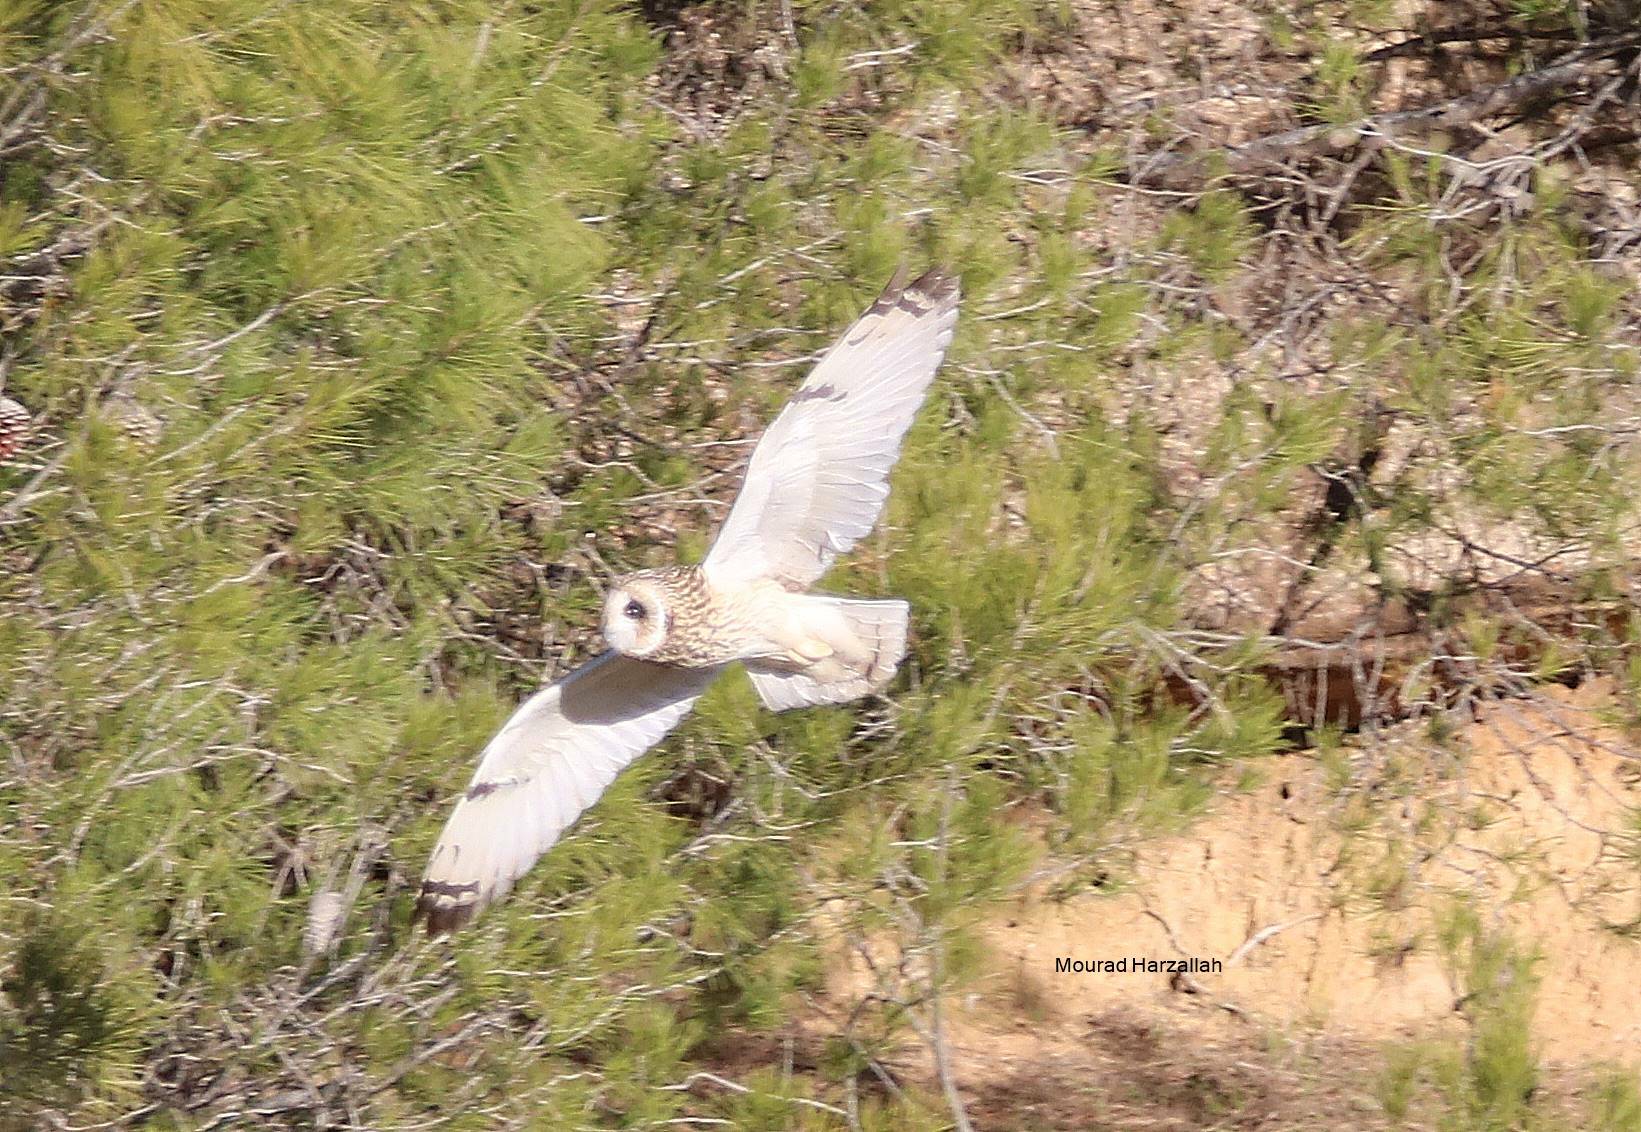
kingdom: Animalia
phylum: Chordata
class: Aves
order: Strigiformes
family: Strigidae
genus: Asio
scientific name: Asio flammeus
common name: Short-eared owl
